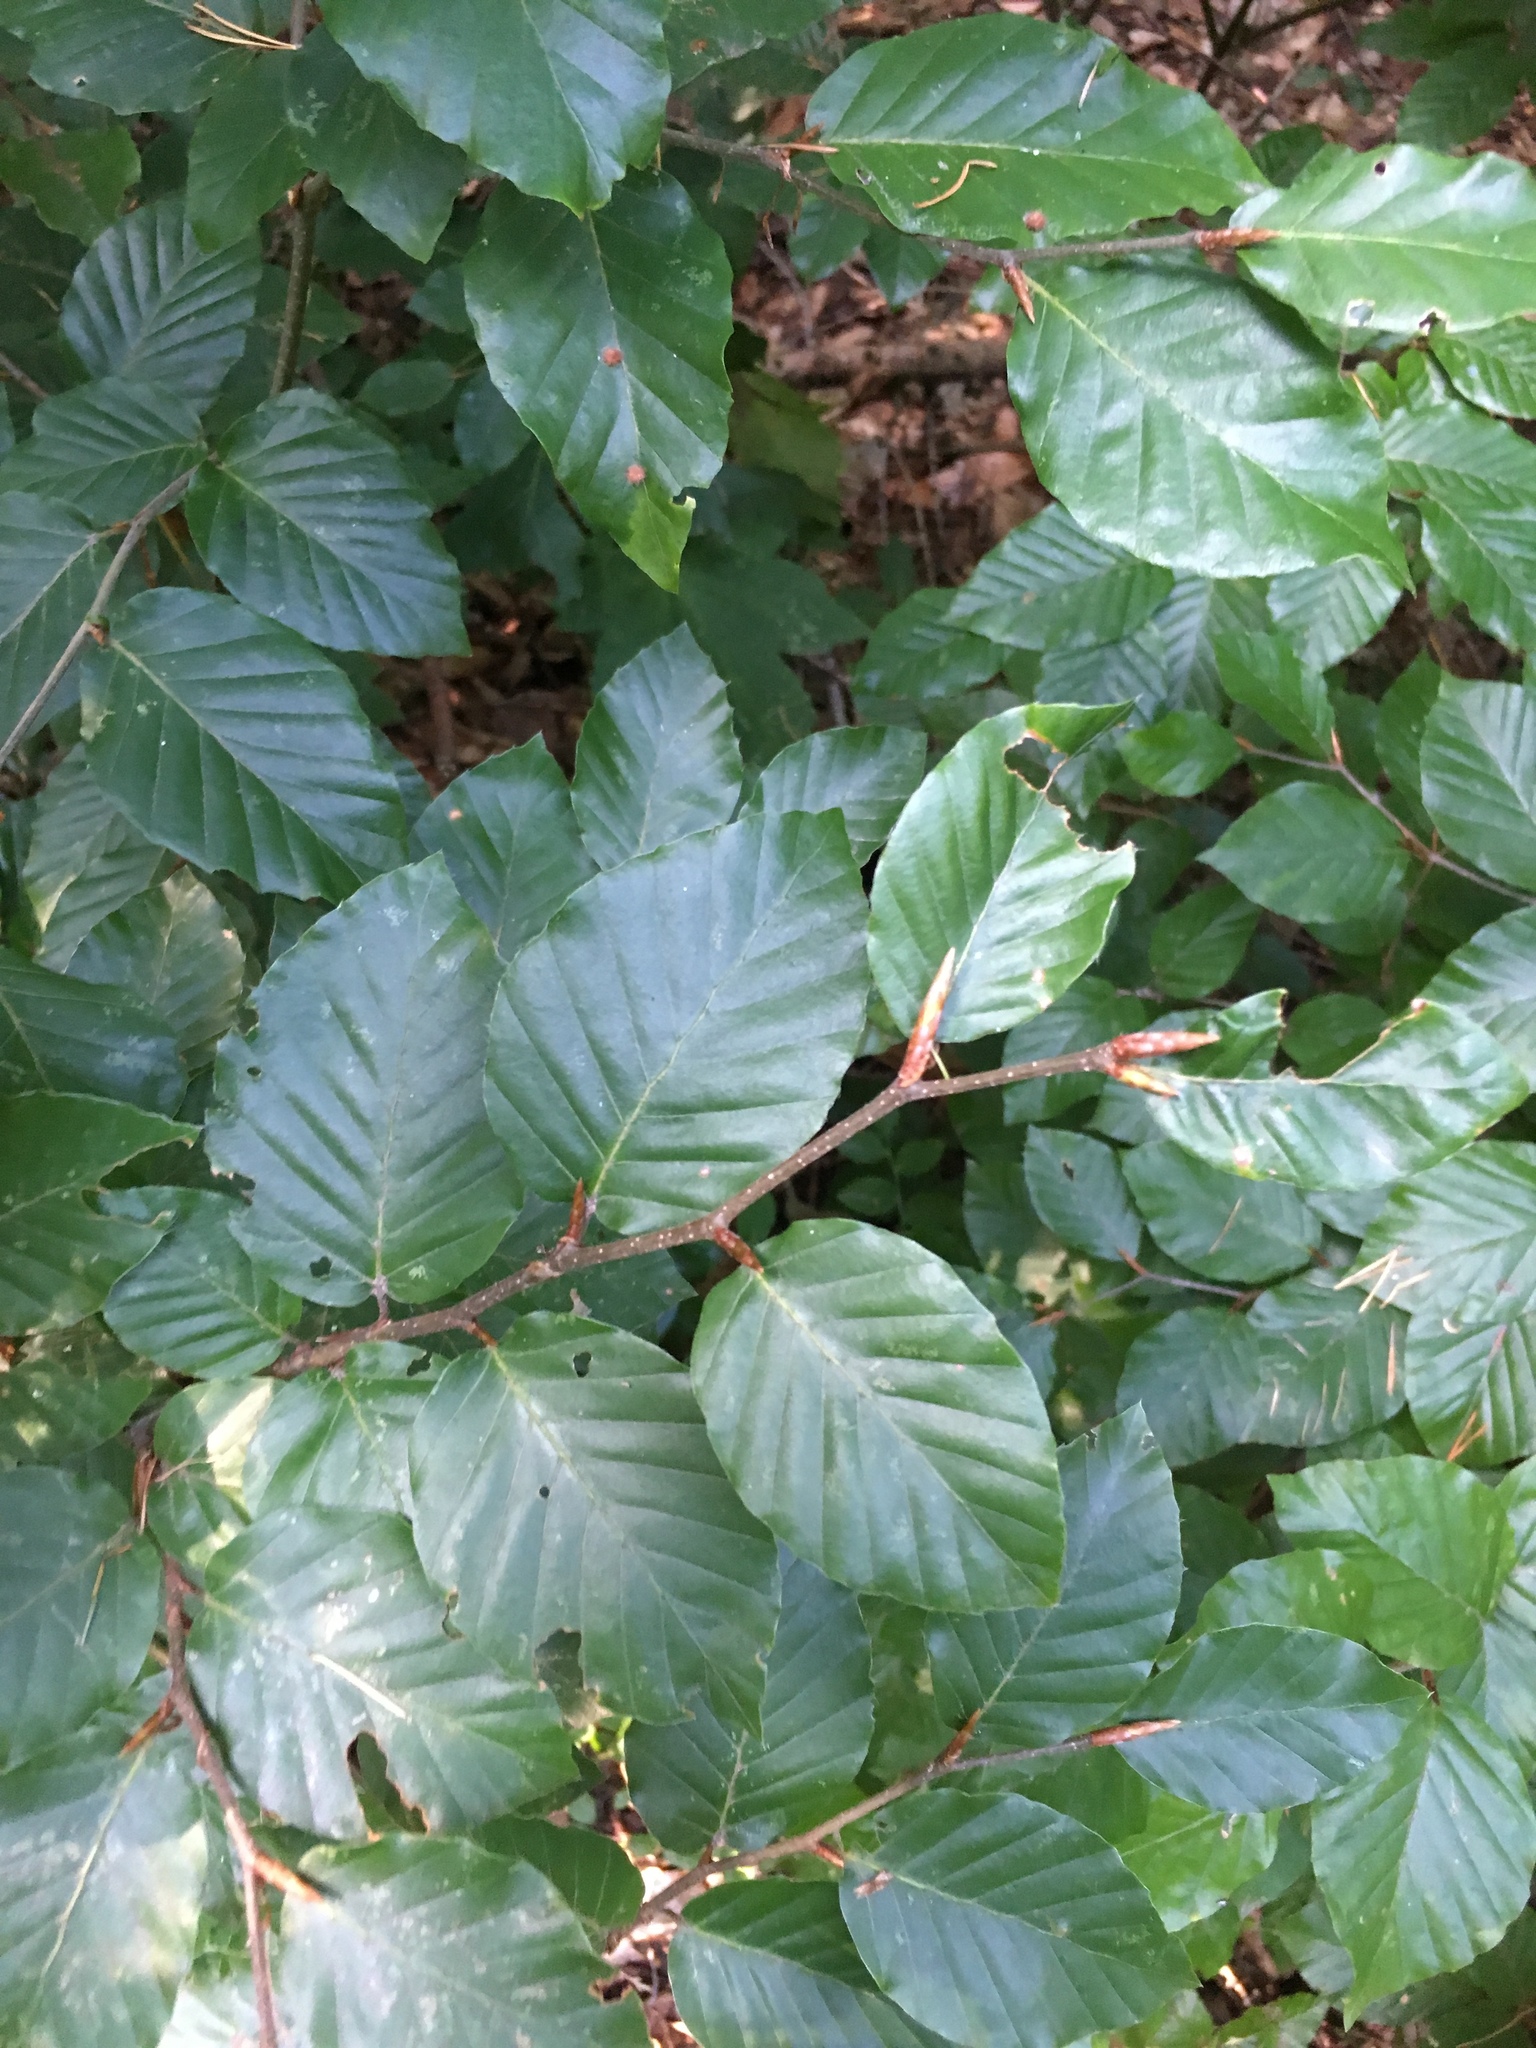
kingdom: Plantae
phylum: Tracheophyta
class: Magnoliopsida
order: Fagales
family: Fagaceae
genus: Fagus
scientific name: Fagus sylvatica
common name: Beech
